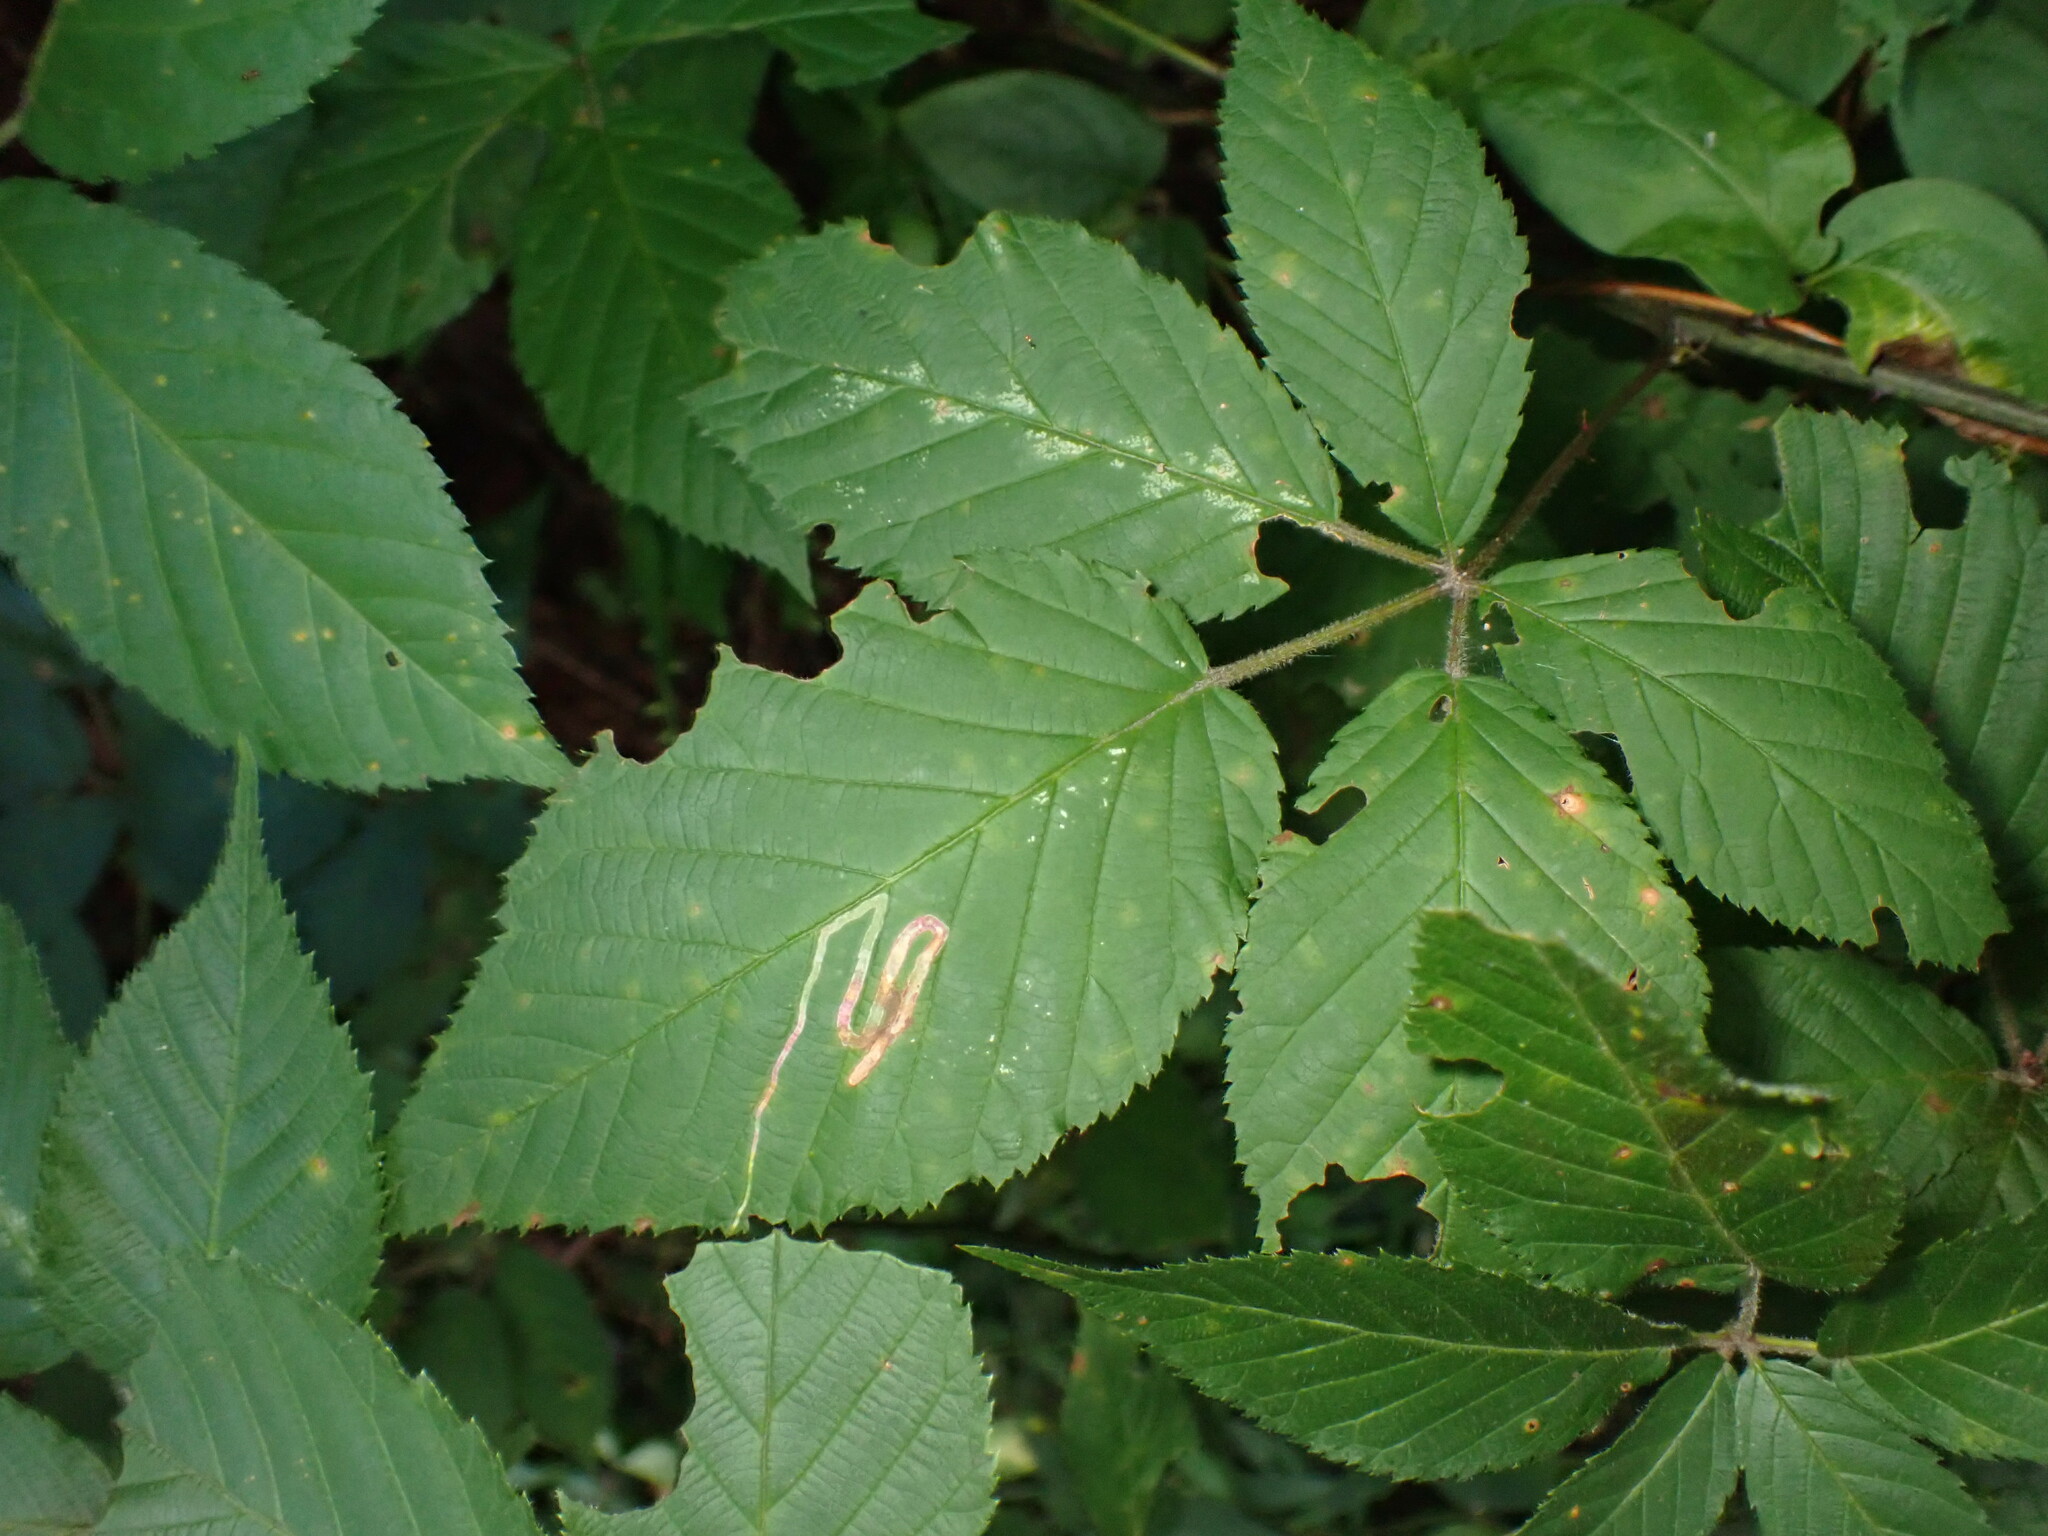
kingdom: Animalia
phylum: Arthropoda
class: Insecta
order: Diptera
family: Agromyzidae
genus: Agromyza
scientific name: Agromyza vockerothi
